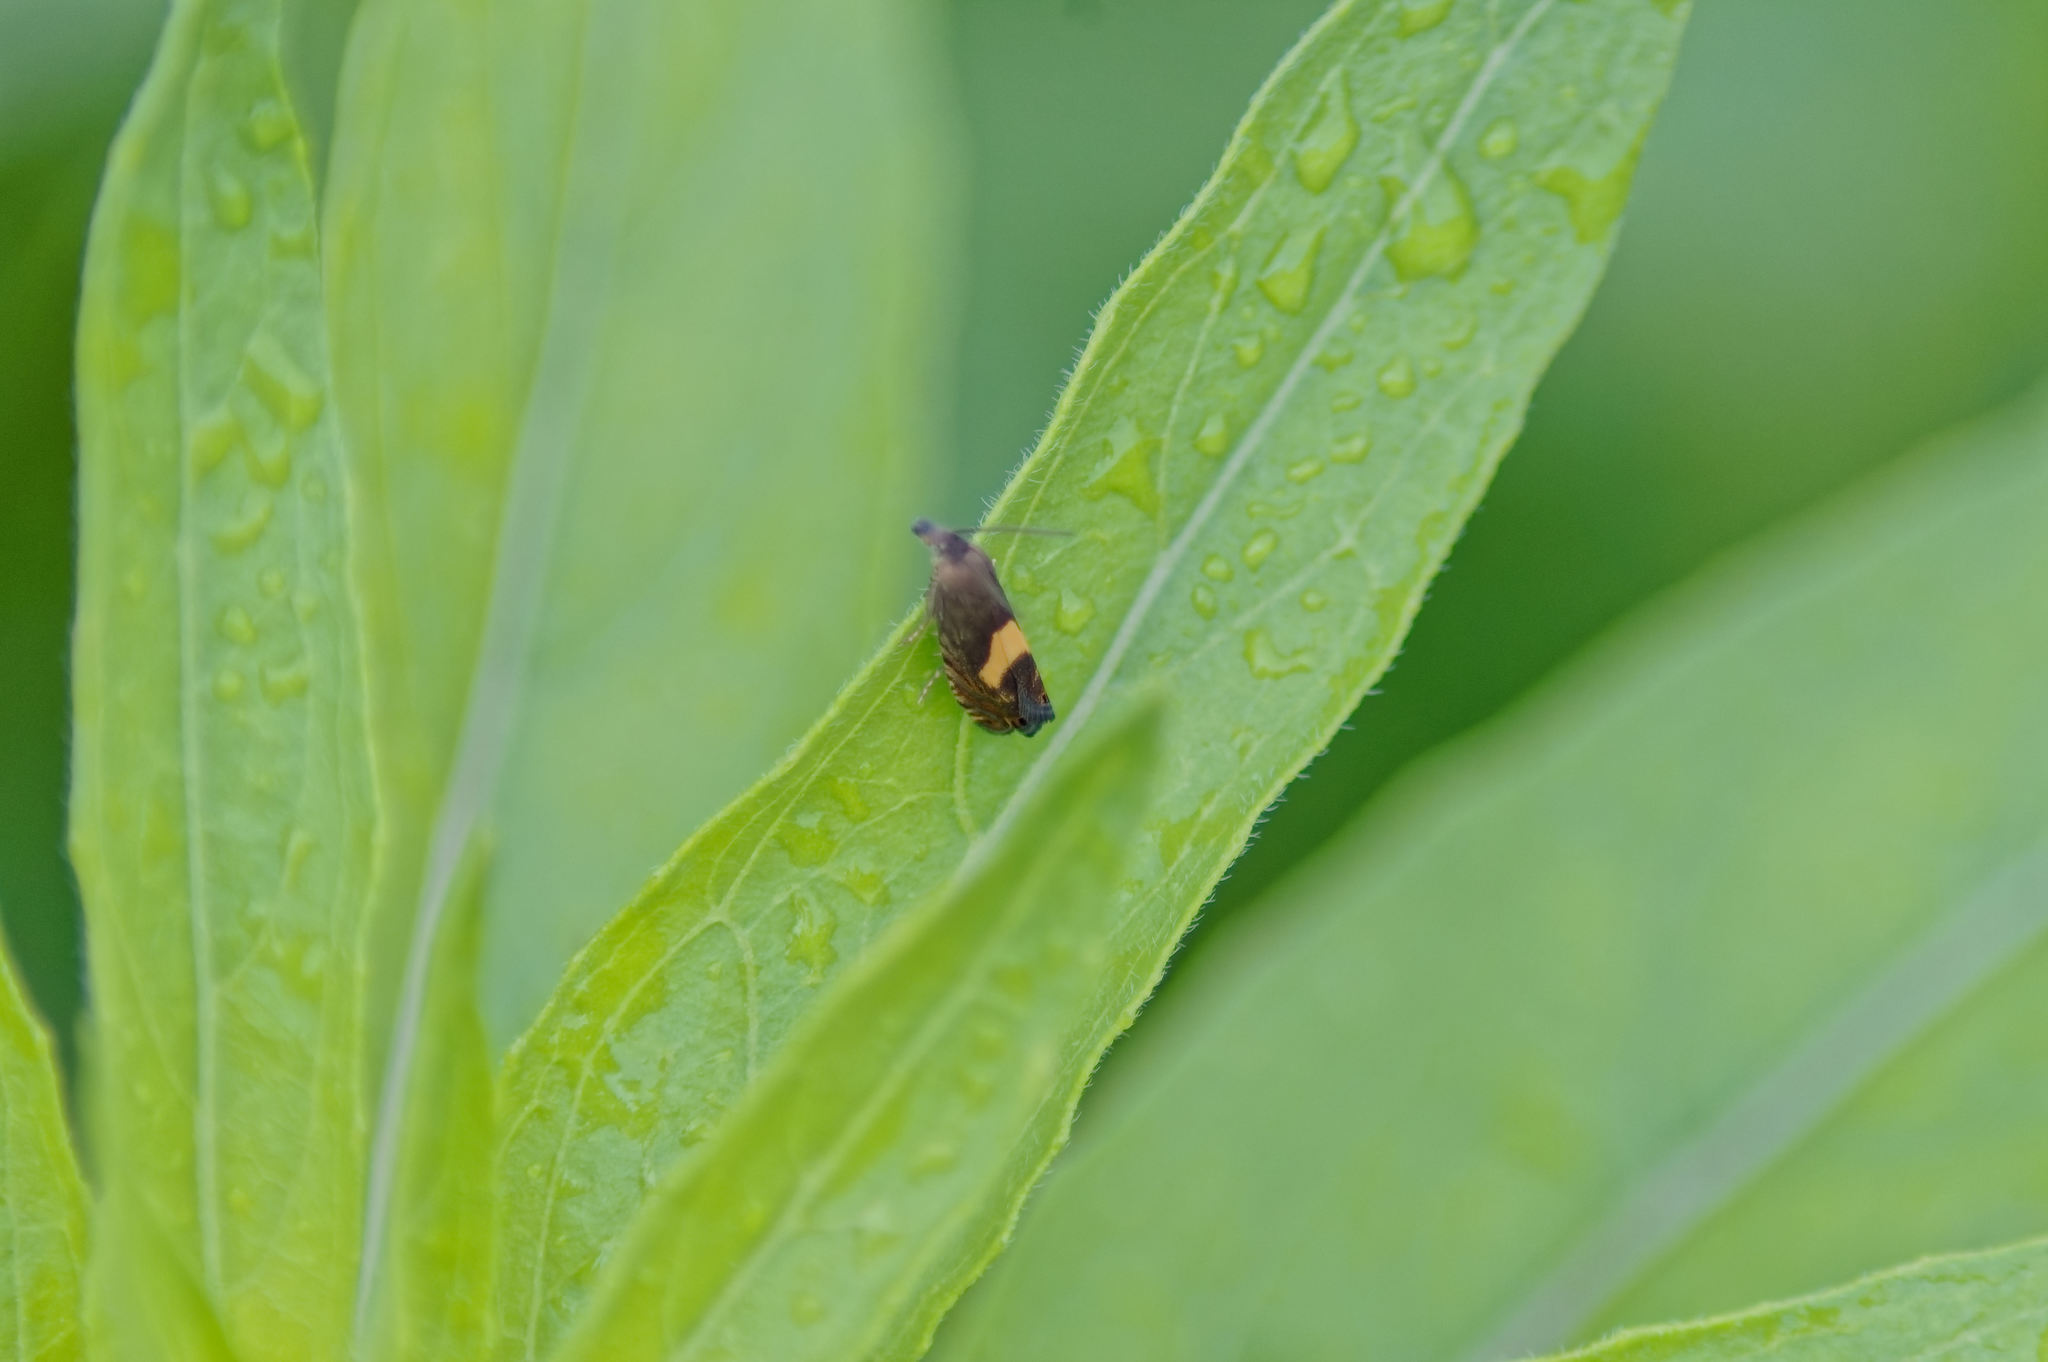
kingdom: Animalia
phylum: Arthropoda
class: Insecta
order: Lepidoptera
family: Tortricidae
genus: Dichrorampha
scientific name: Dichrorampha petiverella
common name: Common drill
